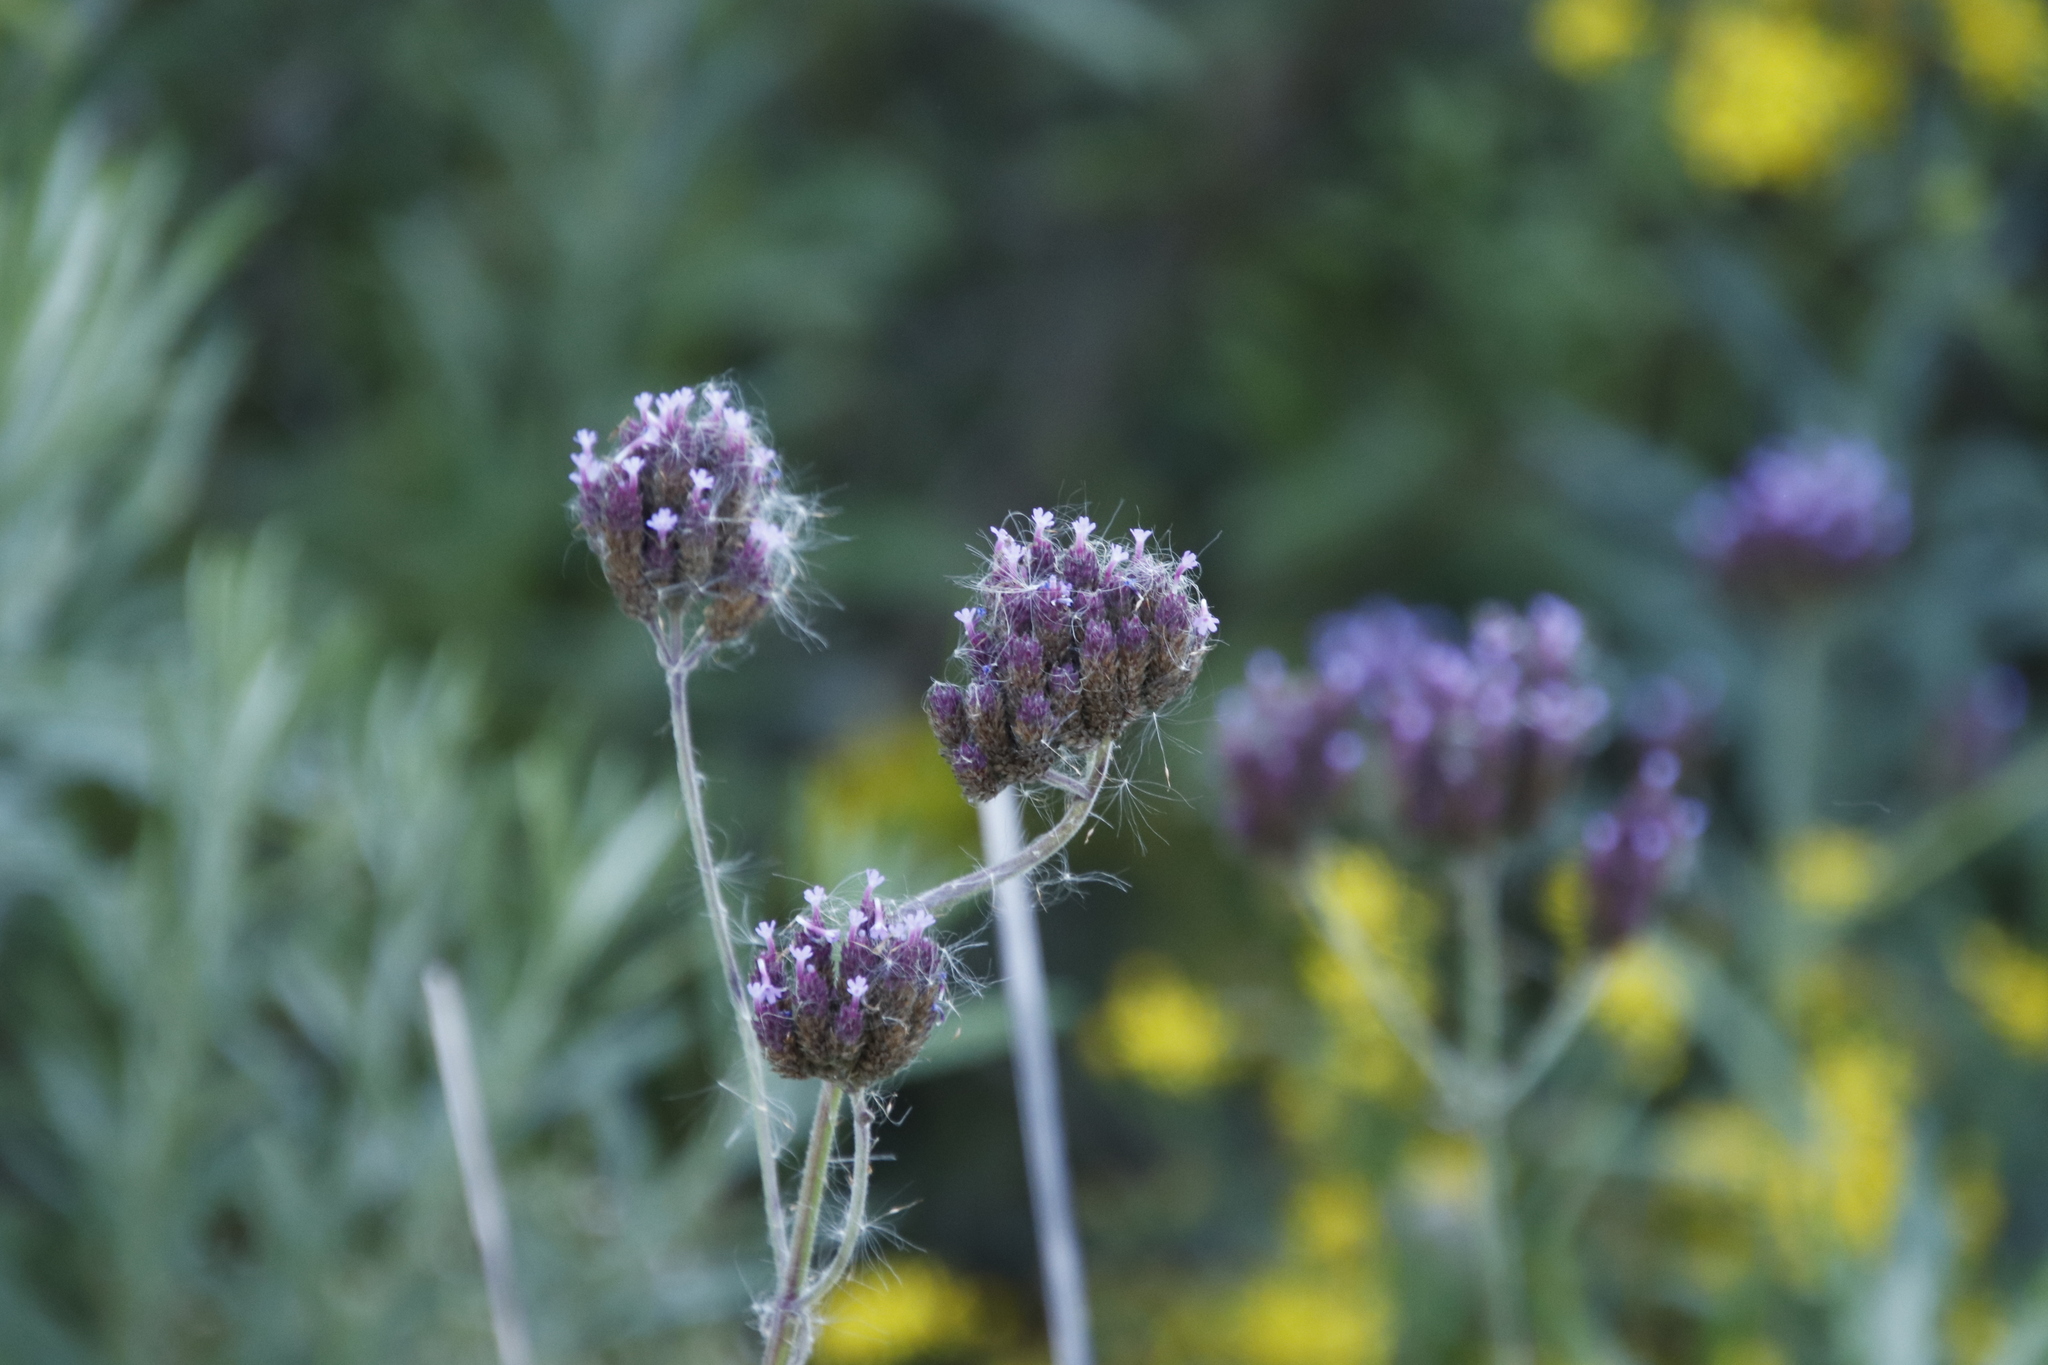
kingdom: Plantae
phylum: Tracheophyta
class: Magnoliopsida
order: Lamiales
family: Verbenaceae
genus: Verbena
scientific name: Verbena bonariensis
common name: Purpletop vervain
